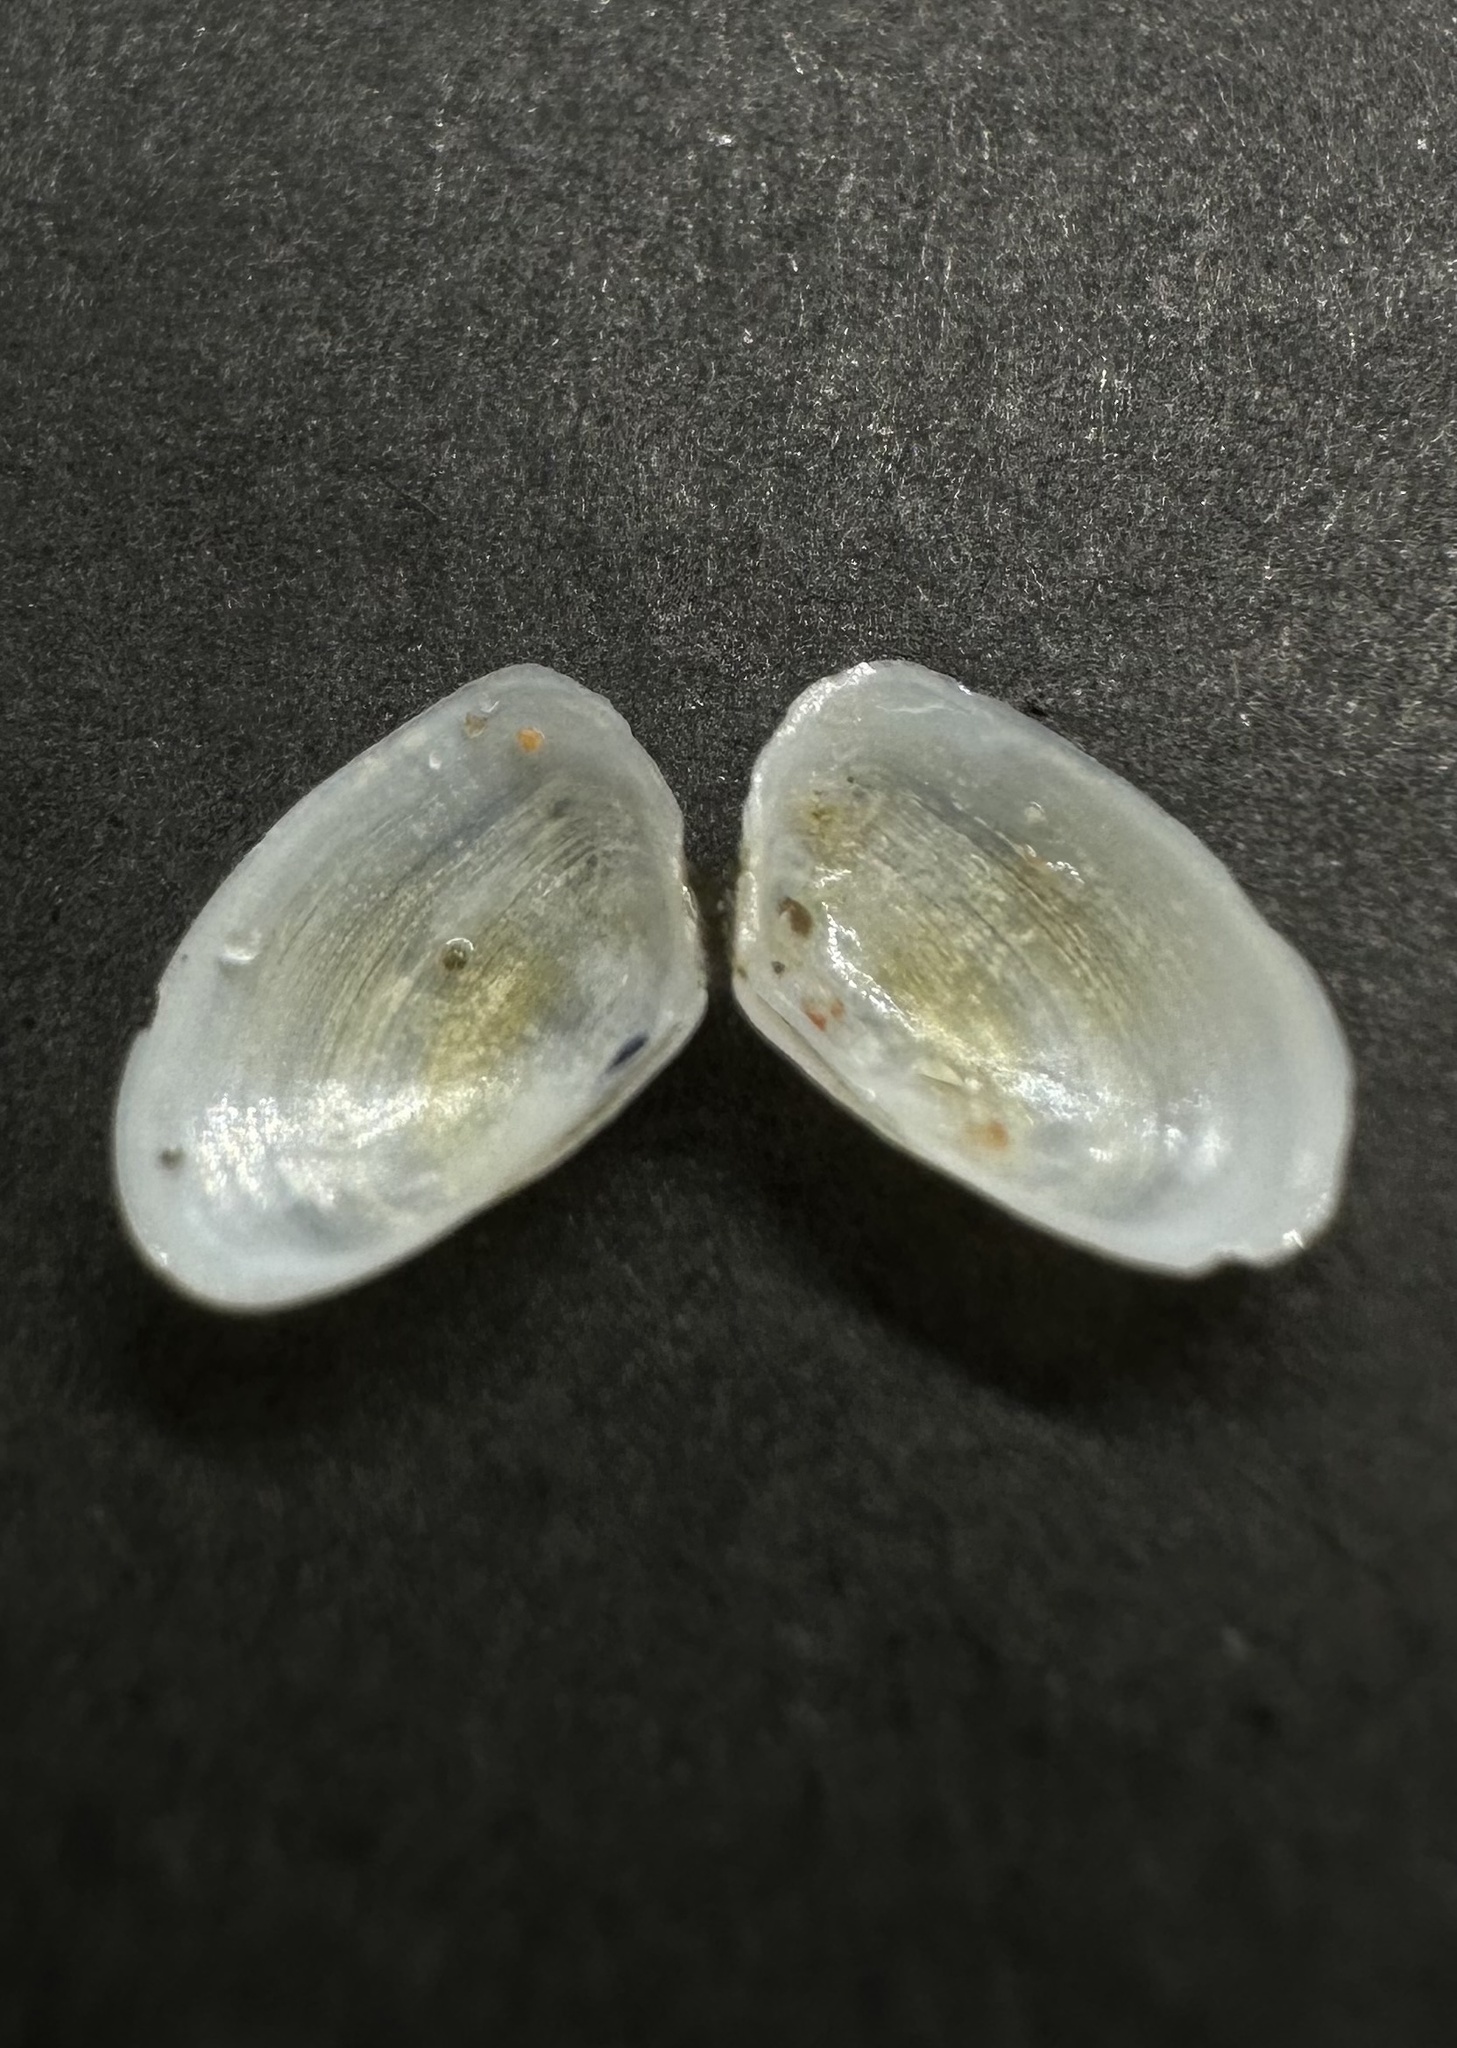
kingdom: Animalia
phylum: Mollusca
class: Bivalvia
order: Cardiida
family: Tellinidae
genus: Ameritella
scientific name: Ameritella agilis
